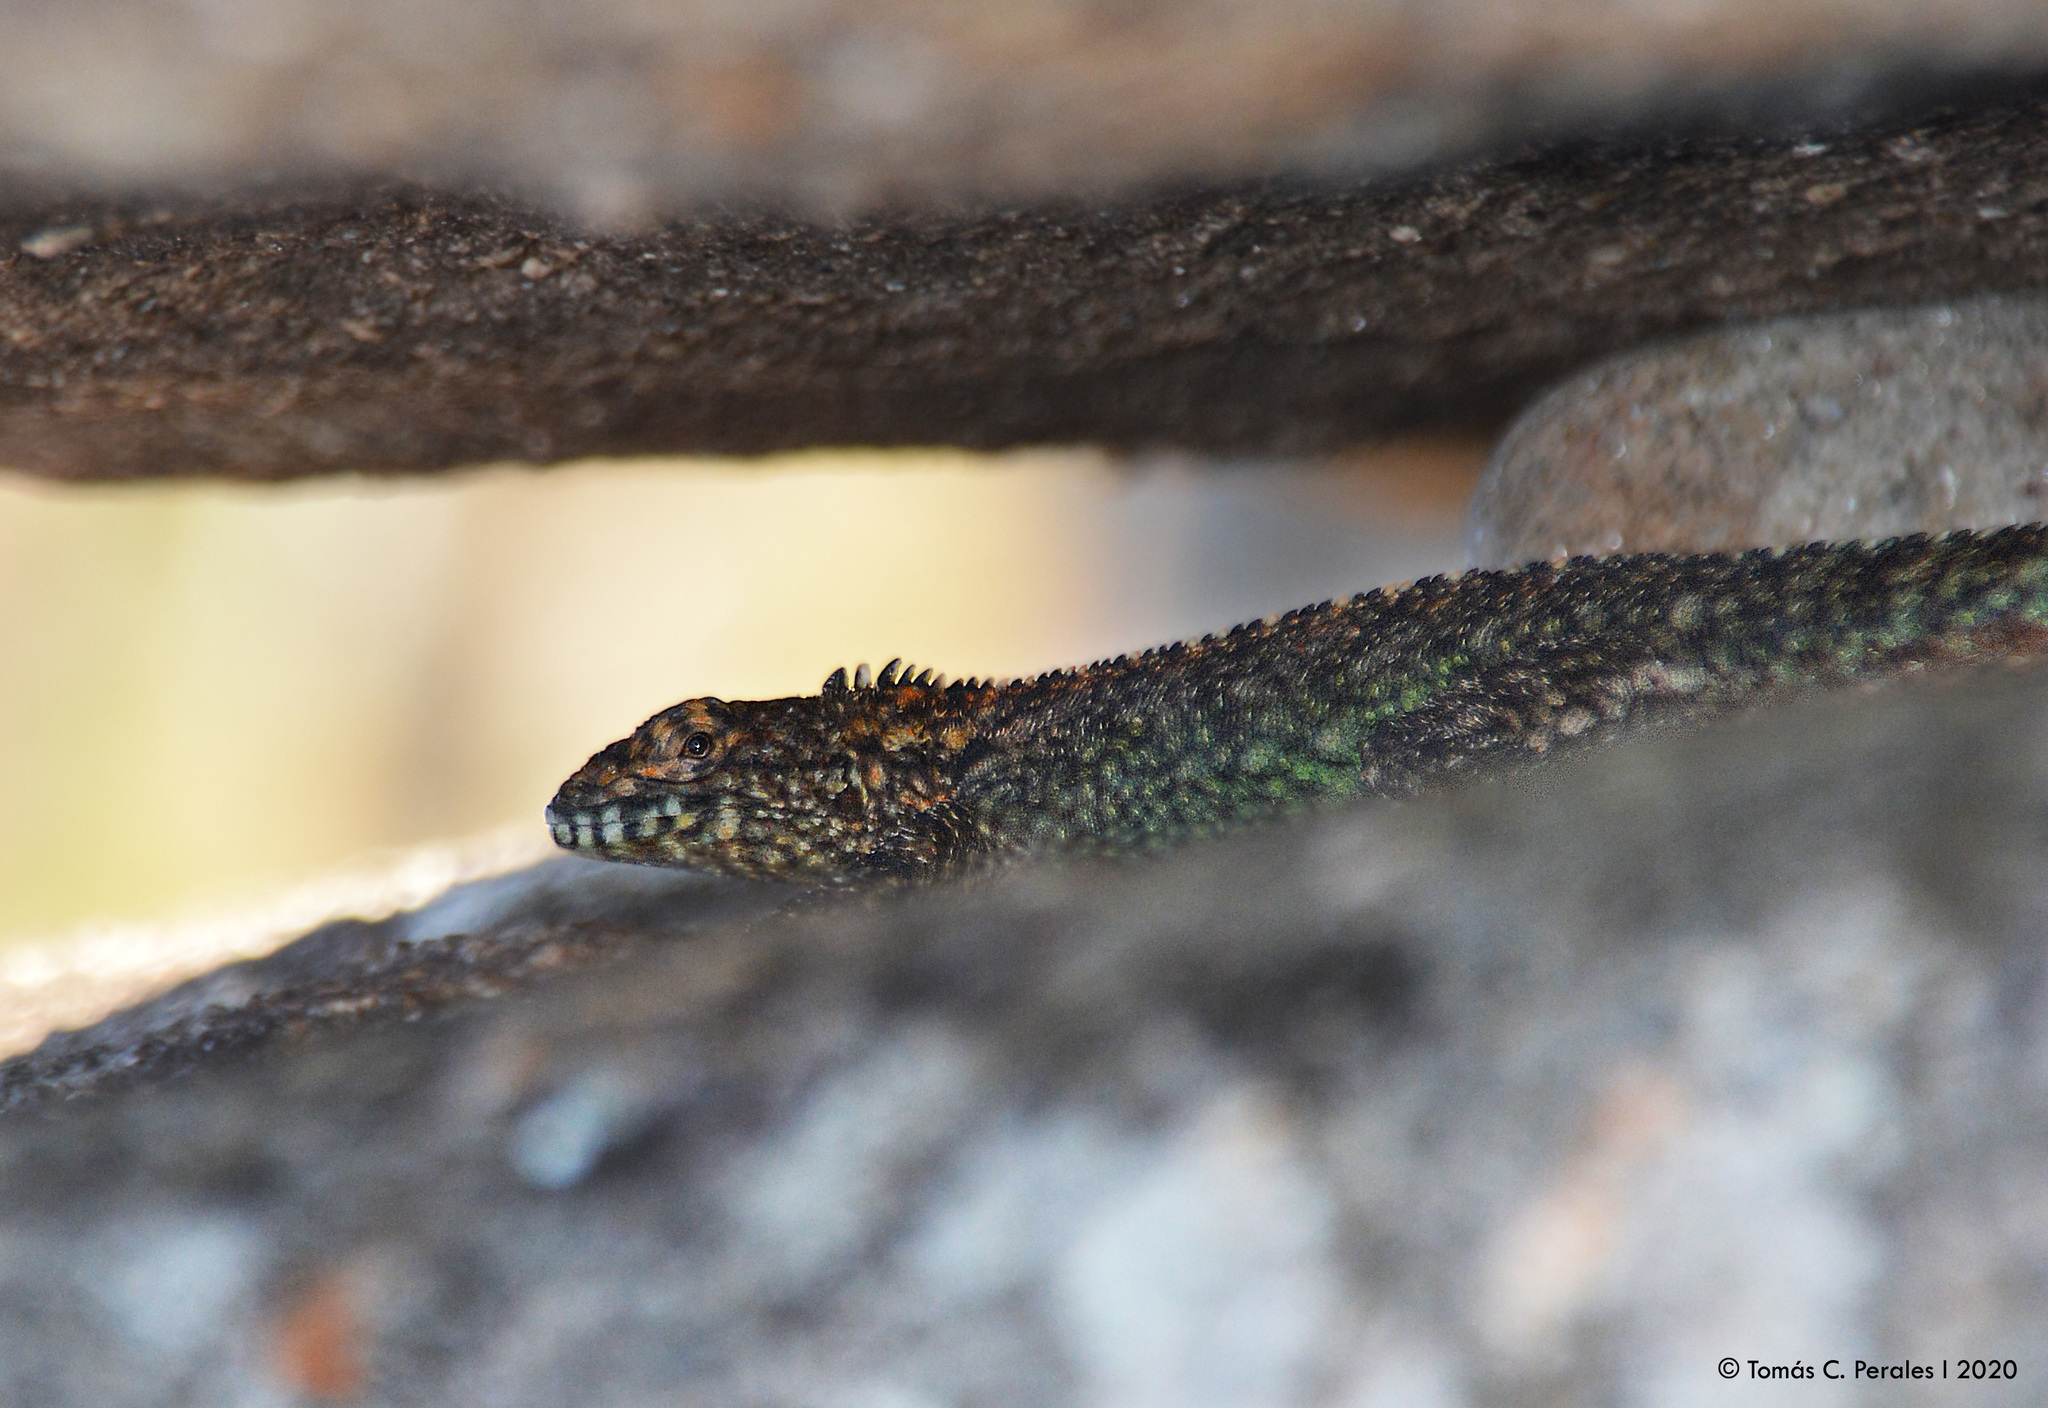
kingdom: Animalia
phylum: Chordata
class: Squamata
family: Tropiduridae
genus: Tropidurus
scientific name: Tropidurus spinulosus
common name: Spiny lava lizard
